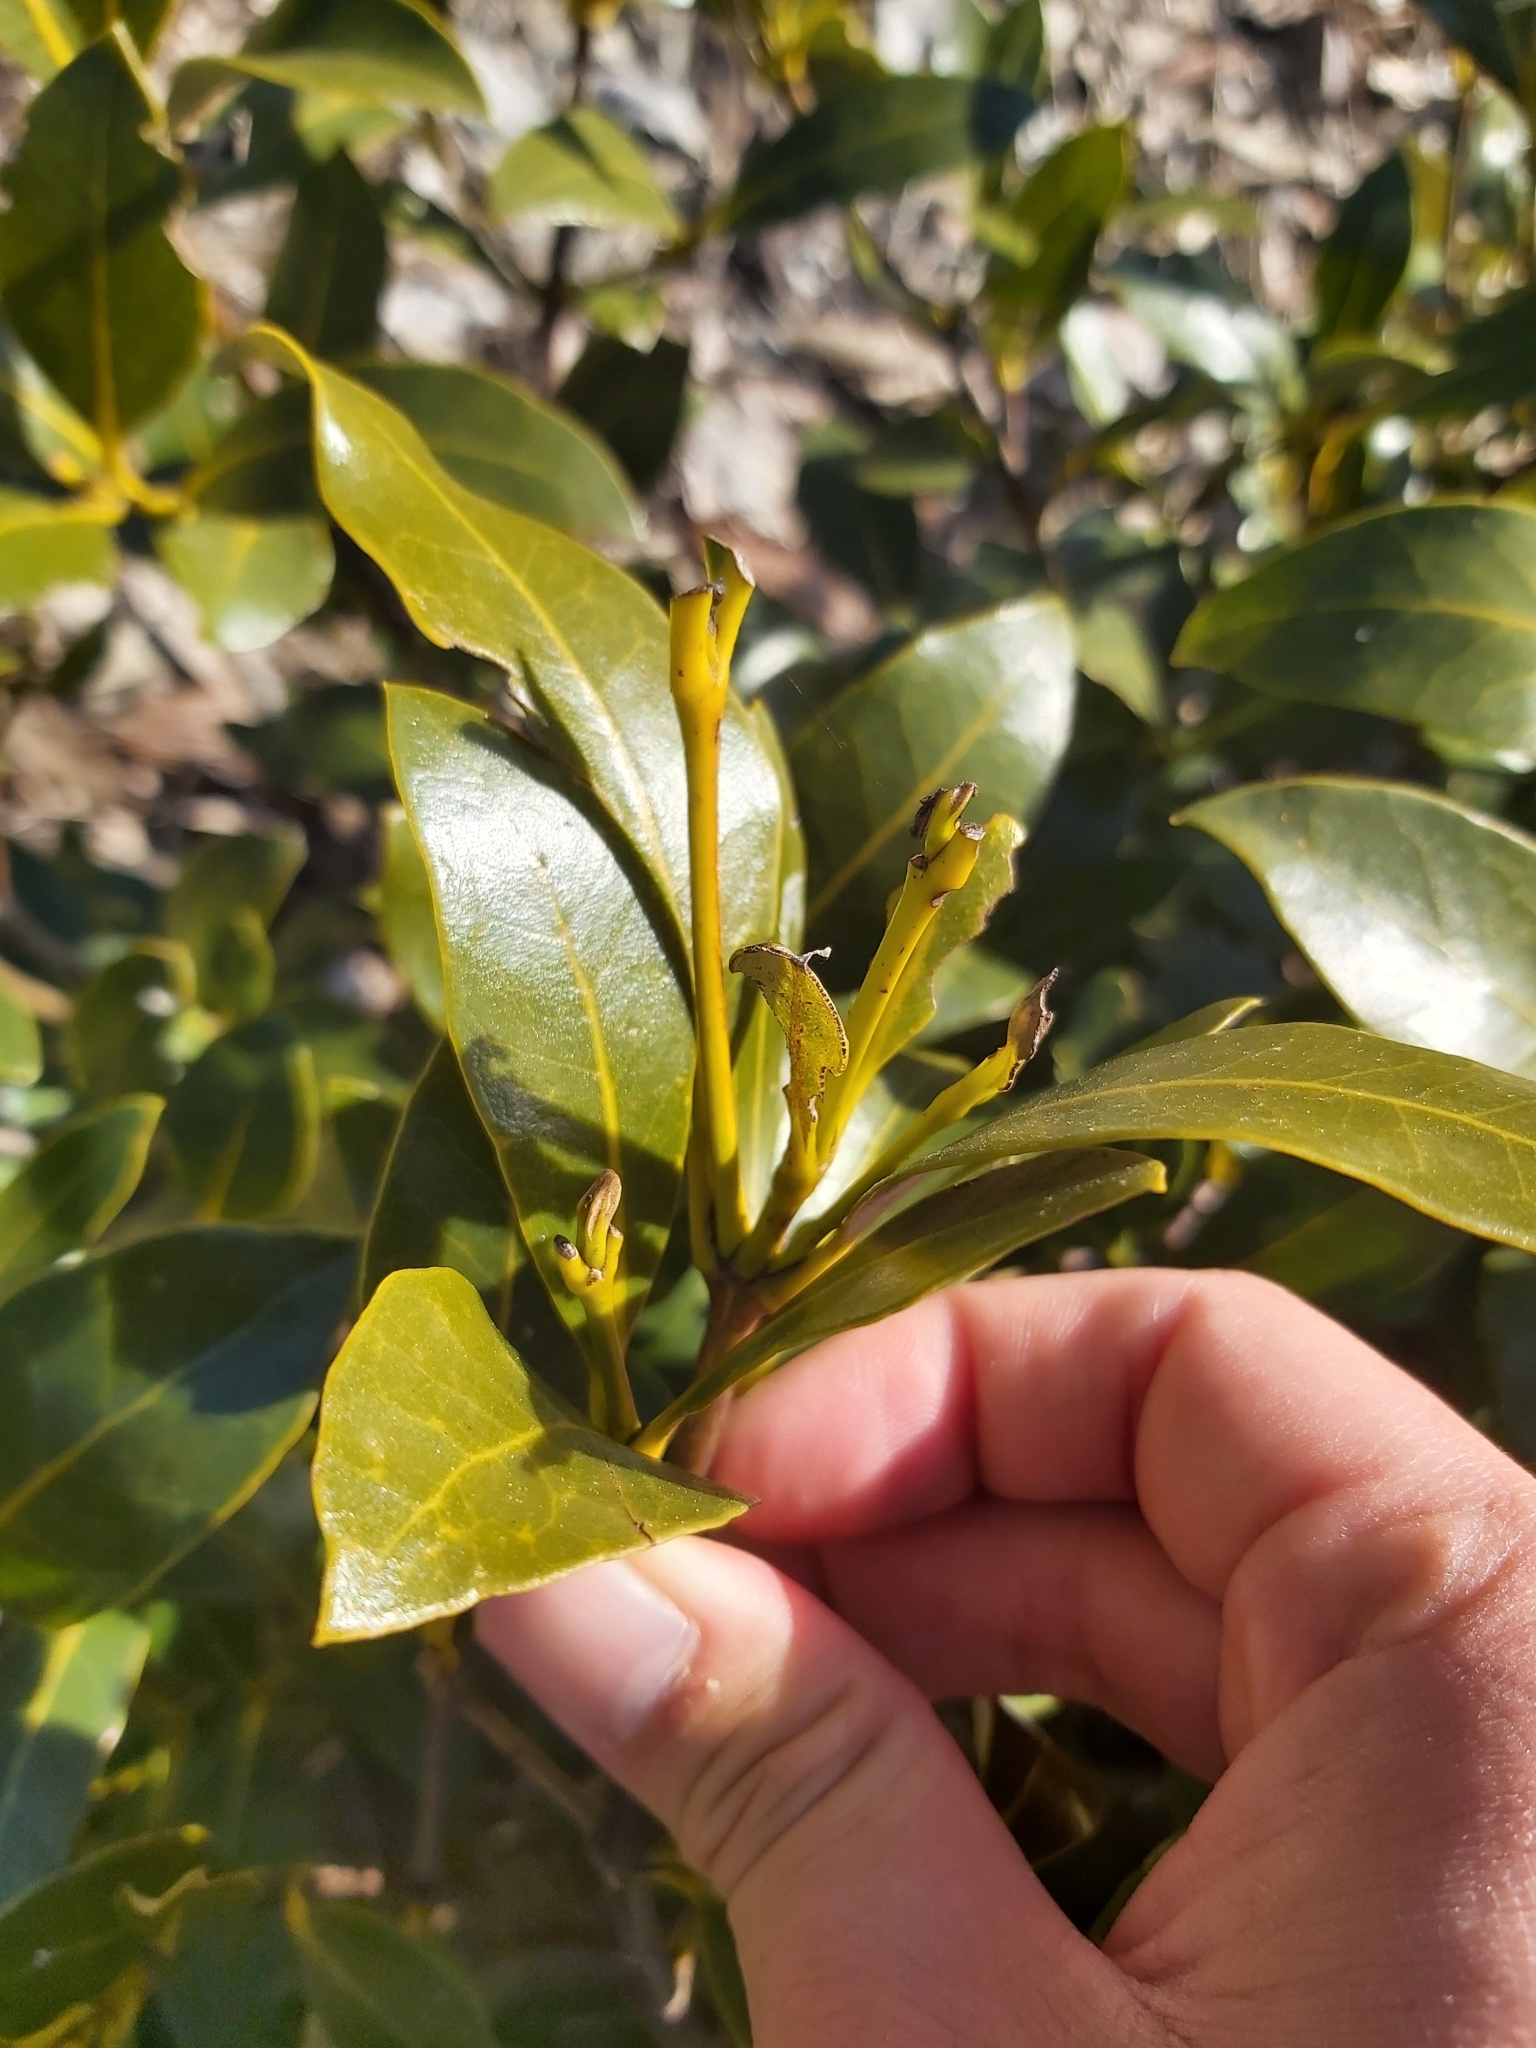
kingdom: Plantae
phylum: Tracheophyta
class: Magnoliopsida
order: Lamiales
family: Acanthaceae
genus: Avicennia
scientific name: Avicennia marina
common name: Gray mangrove
